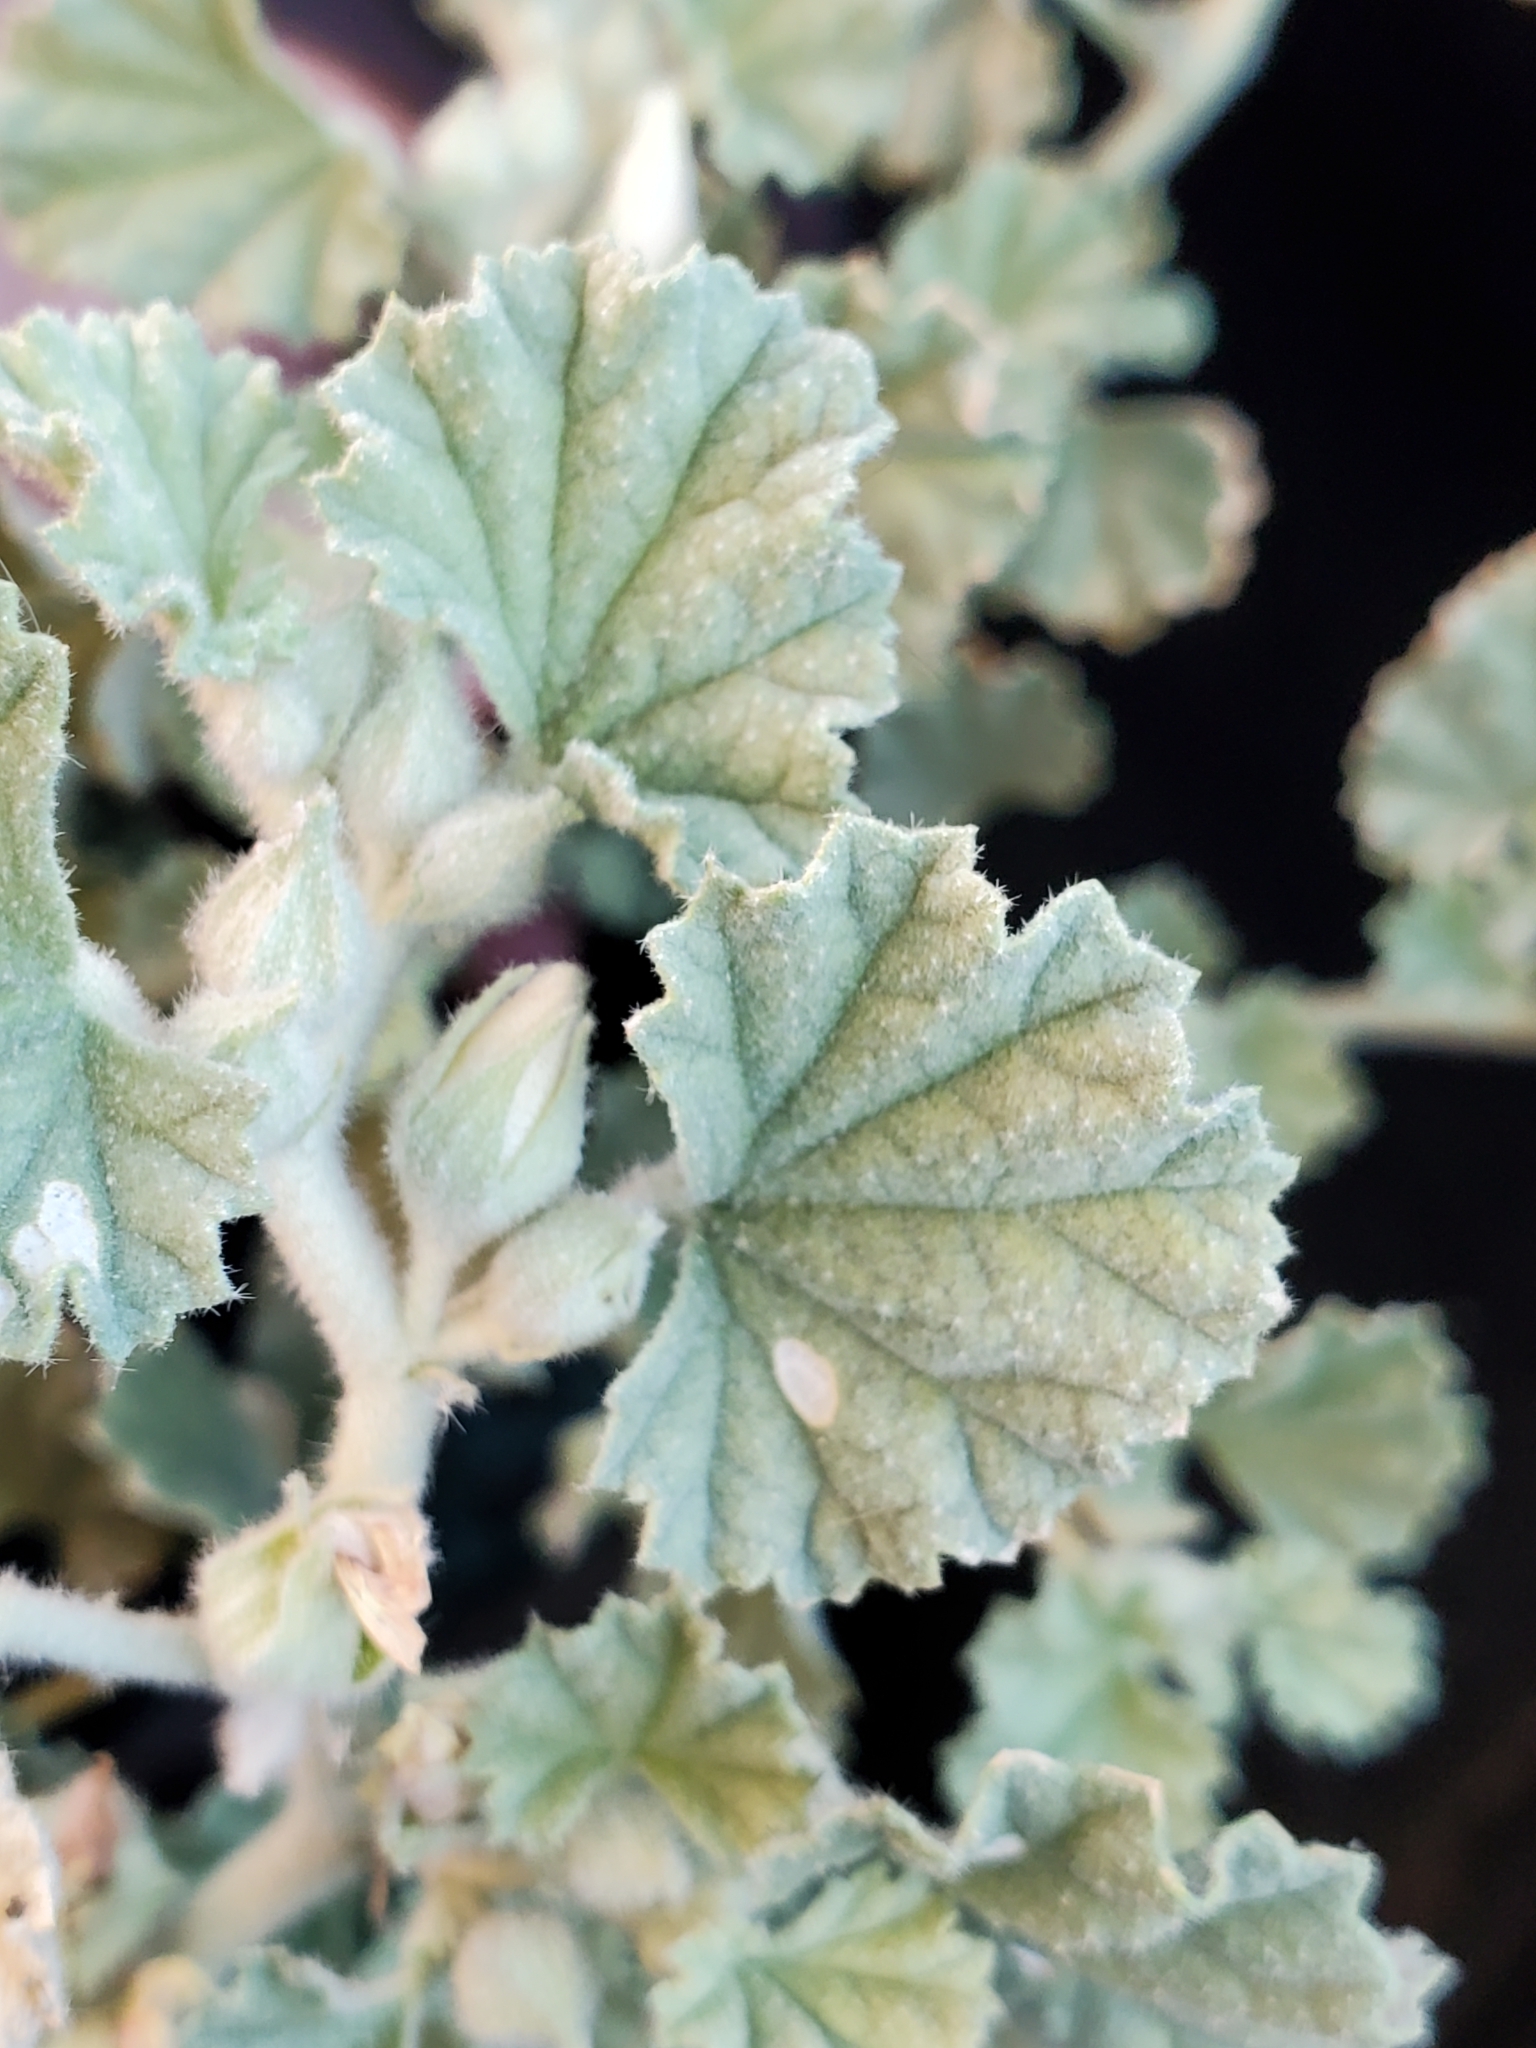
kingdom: Plantae
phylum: Tracheophyta
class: Magnoliopsida
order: Malvales
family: Malvaceae
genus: Malvella
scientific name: Malvella leprosa
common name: Alkali-mallow
